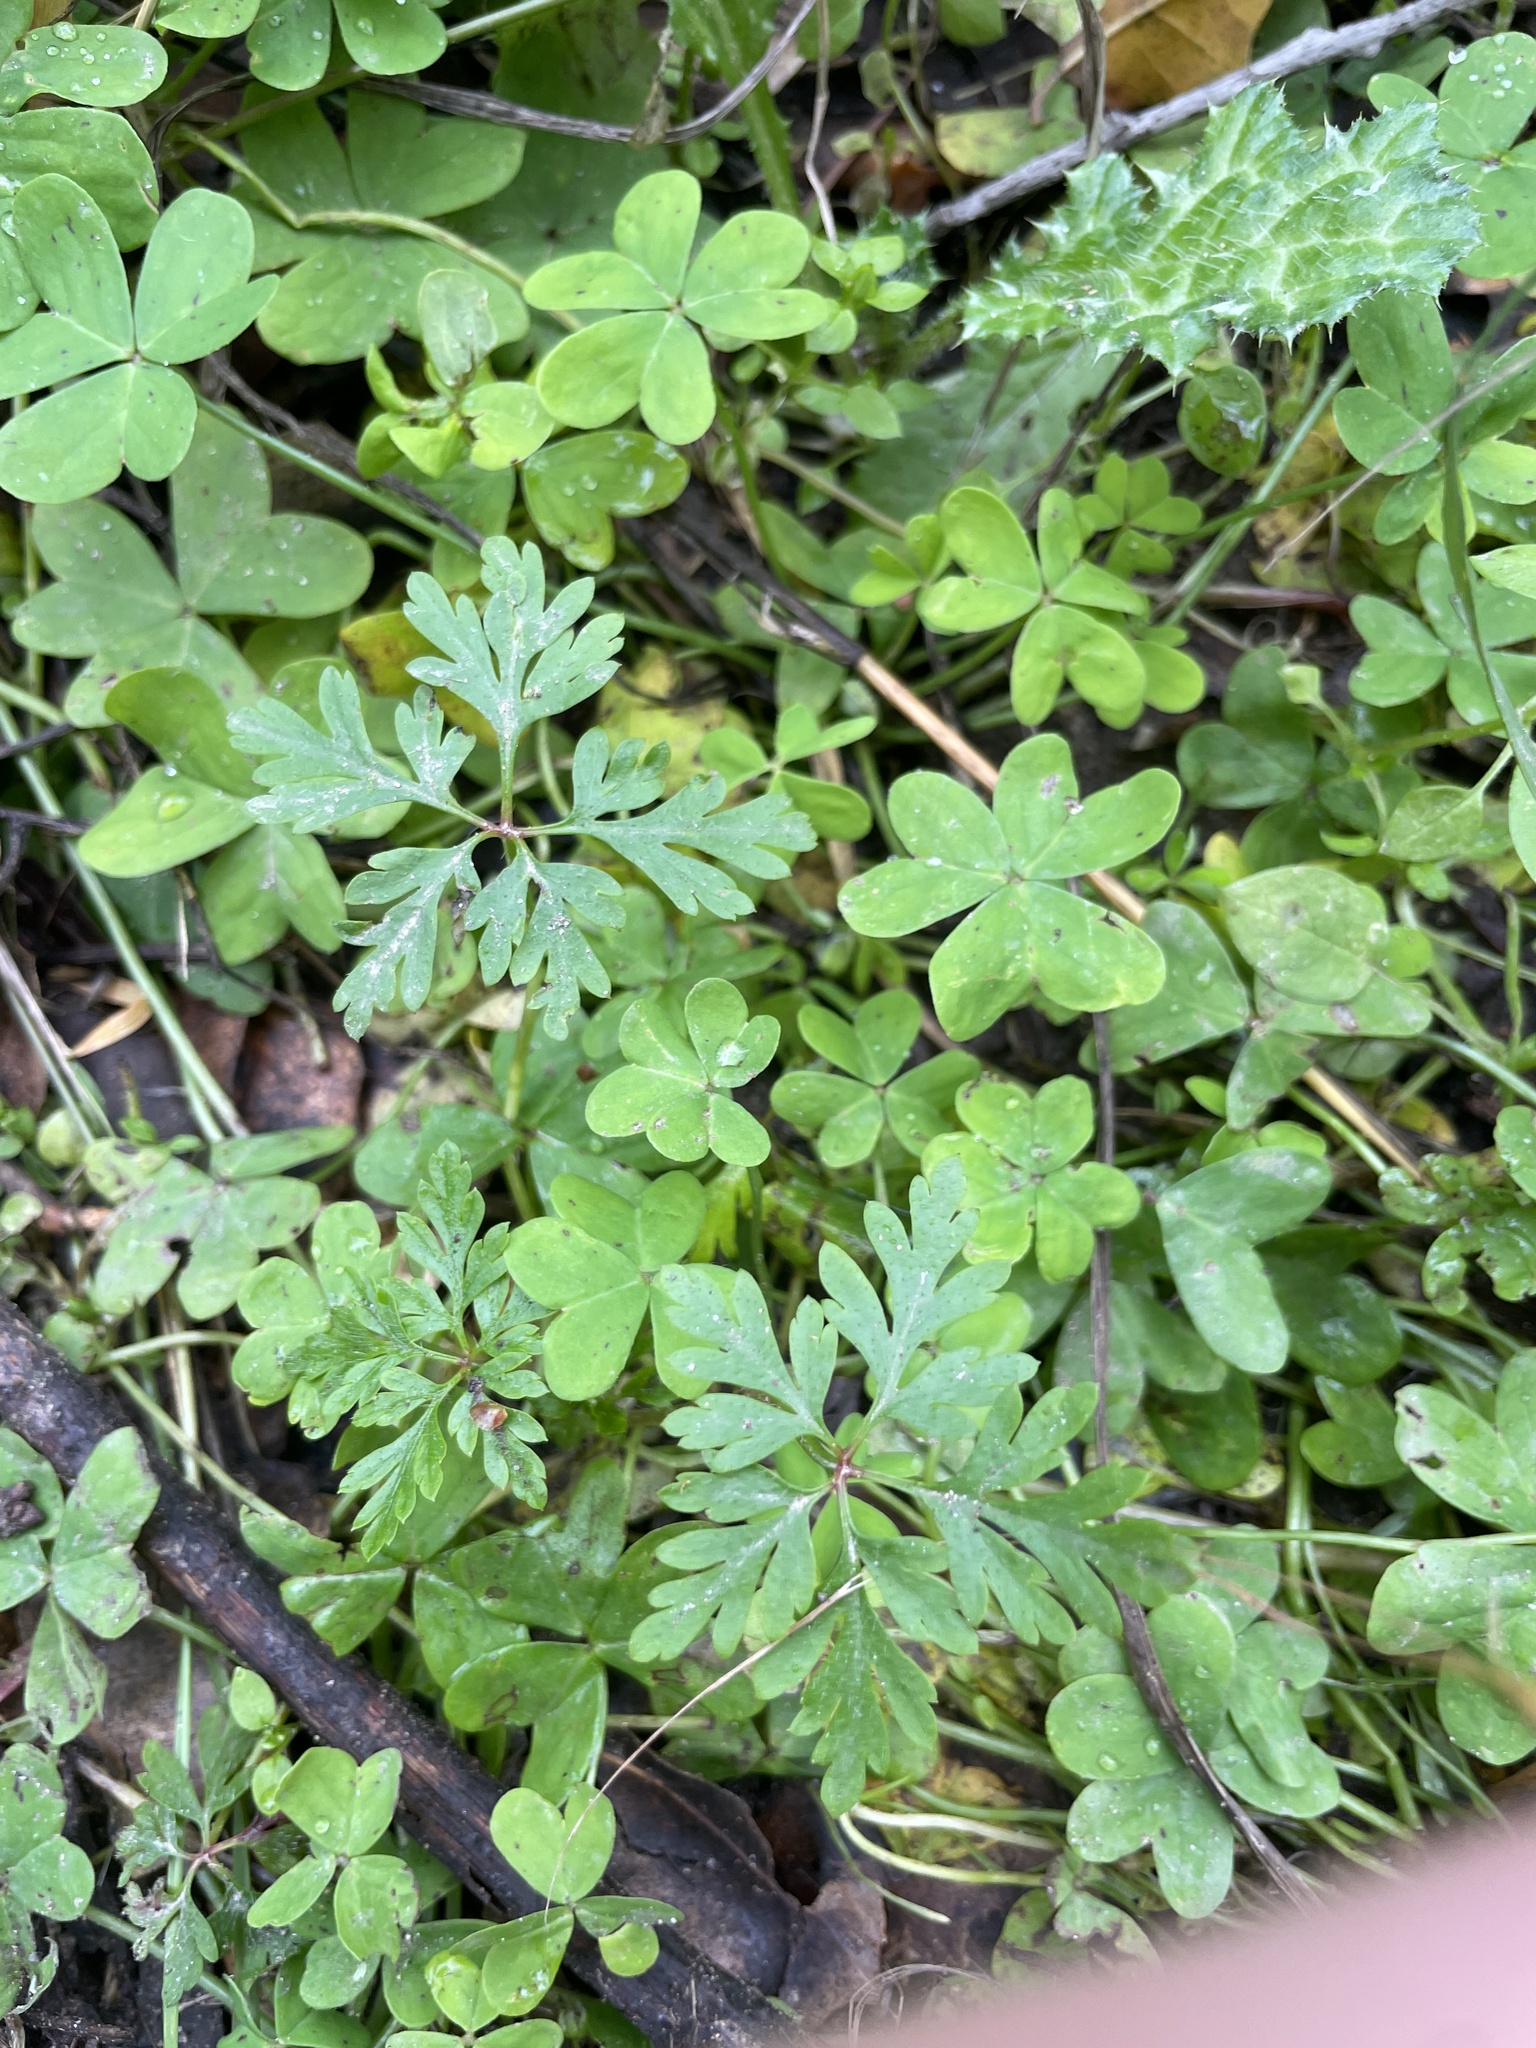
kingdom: Plantae
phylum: Tracheophyta
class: Magnoliopsida
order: Geraniales
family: Geraniaceae
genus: Geranium
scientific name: Geranium
